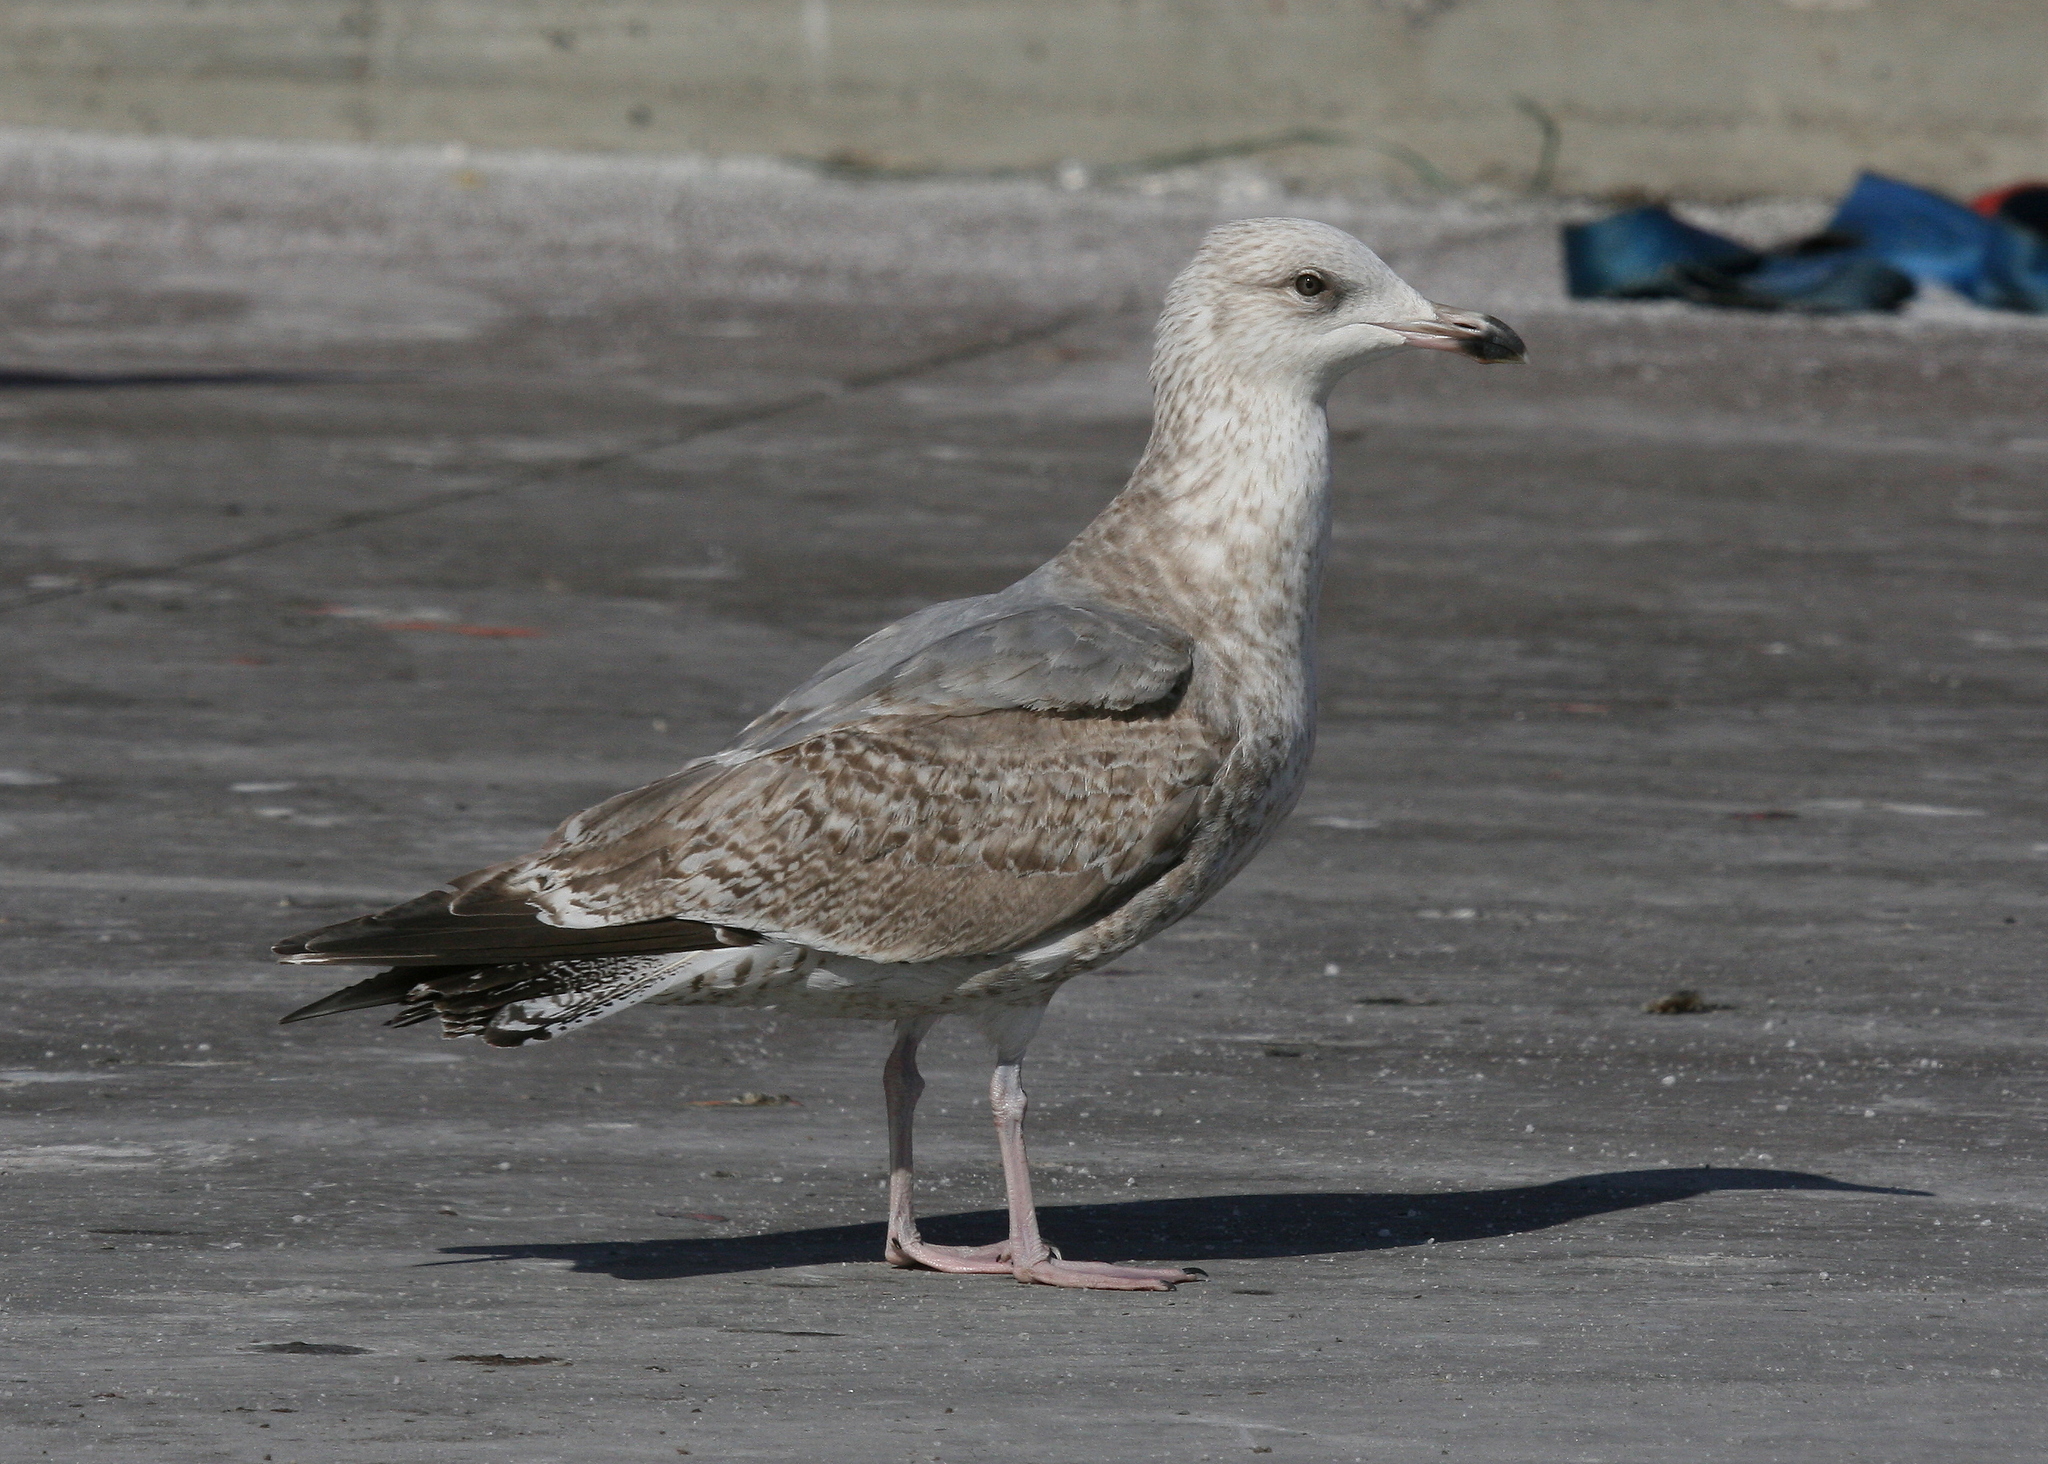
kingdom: Animalia
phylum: Chordata
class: Aves
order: Charadriiformes
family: Laridae
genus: Larus
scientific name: Larus argentatus
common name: Herring gull
